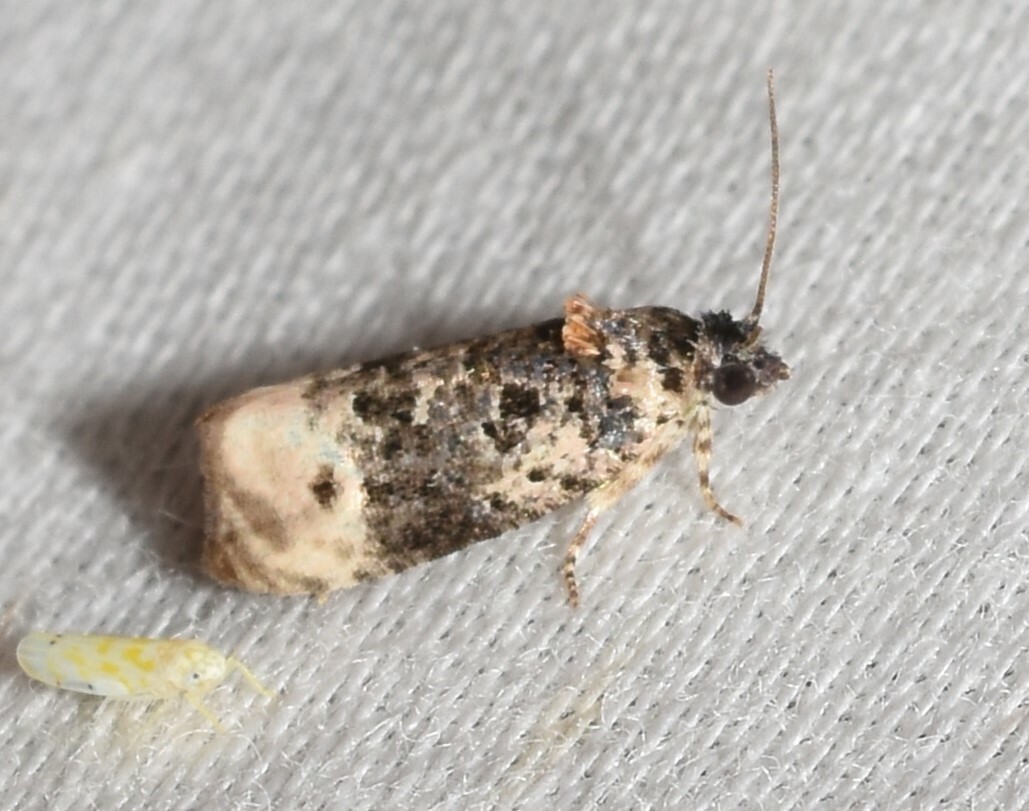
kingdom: Animalia
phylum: Arthropoda
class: Insecta
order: Lepidoptera
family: Tortricidae
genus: Hedya
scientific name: Hedya separatana
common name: Pink-washed leafroller moth
